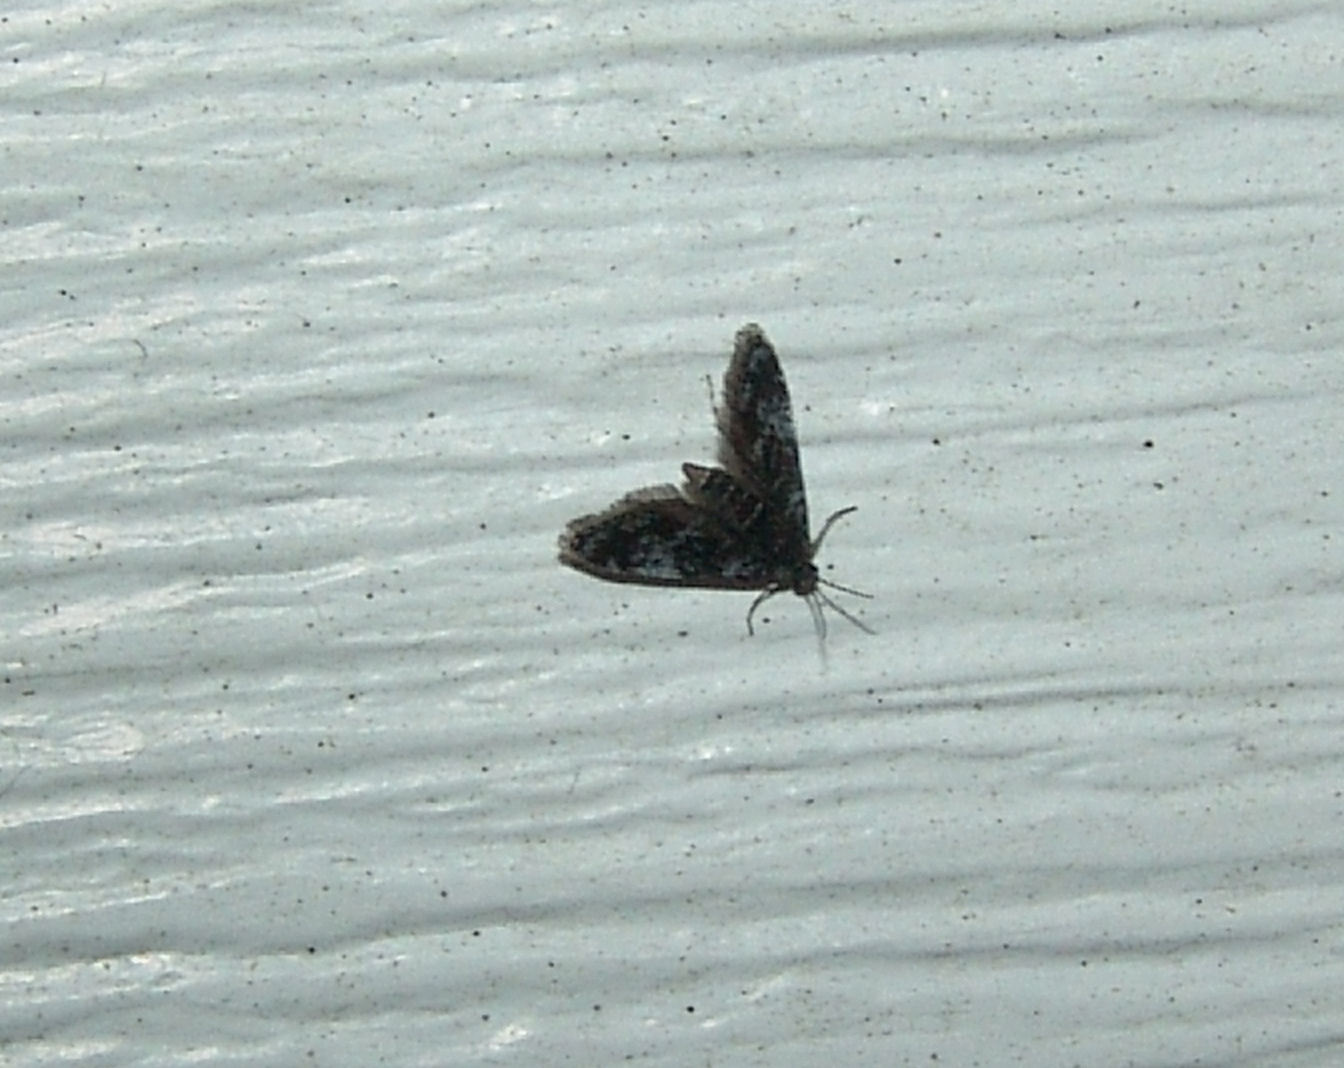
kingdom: Animalia
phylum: Arthropoda
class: Insecta
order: Lepidoptera
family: Crambidae
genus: Elophila
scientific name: Elophila tinealis
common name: Black duckweed moth
